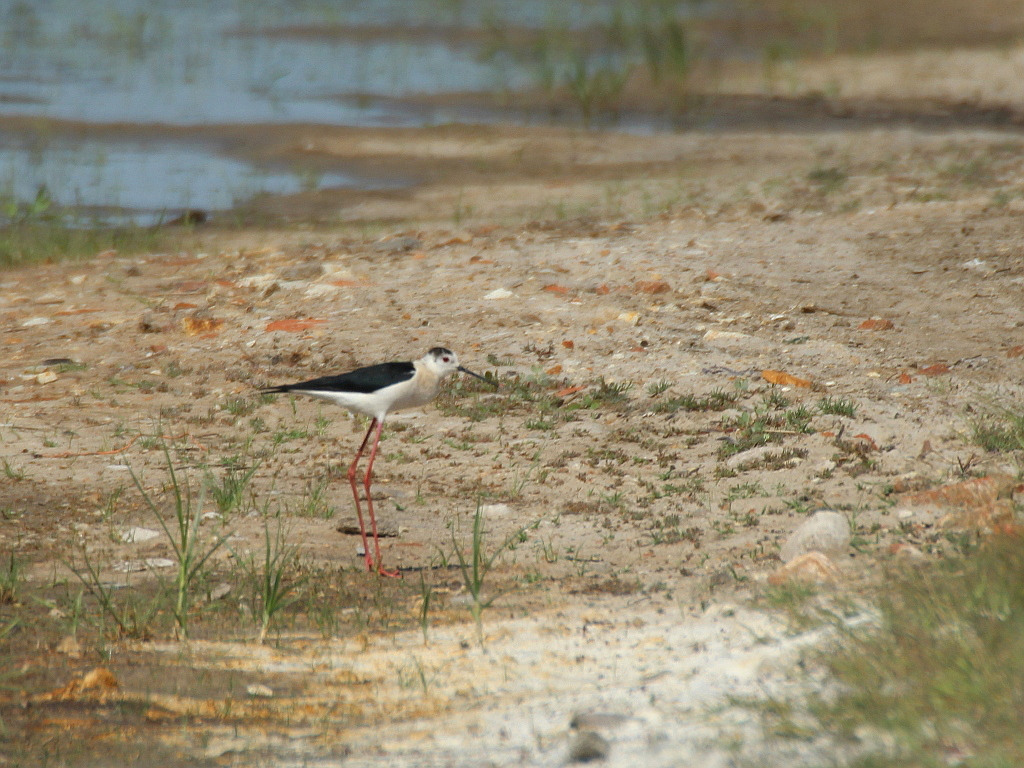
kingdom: Animalia
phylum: Chordata
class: Aves
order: Charadriiformes
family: Recurvirostridae
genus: Himantopus
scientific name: Himantopus himantopus
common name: Black-winged stilt
